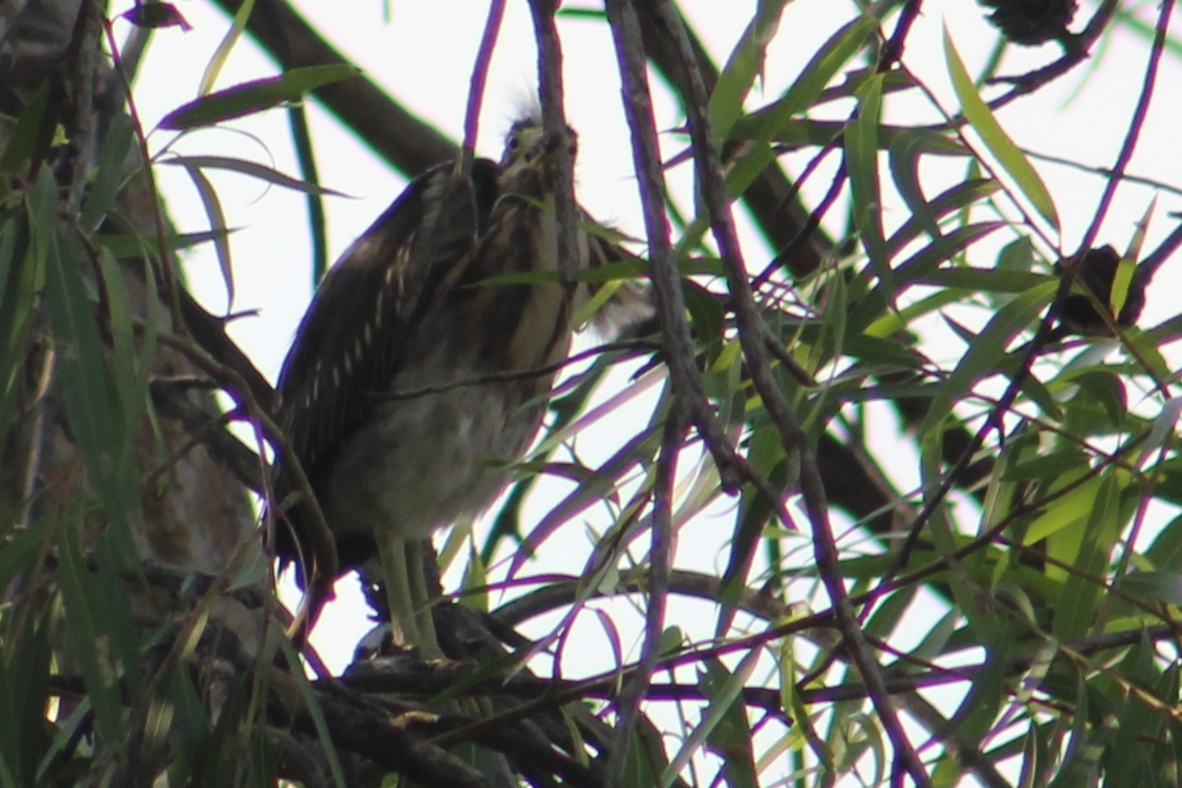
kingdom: Animalia
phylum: Chordata
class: Aves
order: Pelecaniformes
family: Ardeidae
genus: Butorides
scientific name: Butorides virescens
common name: Green heron
